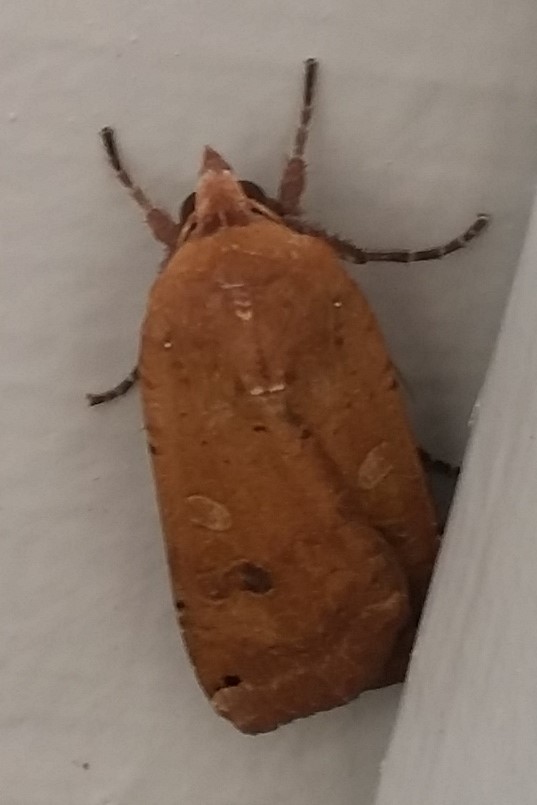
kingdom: Animalia
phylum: Arthropoda
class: Insecta
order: Lepidoptera
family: Noctuidae
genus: Noctua
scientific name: Noctua pronuba
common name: Large yellow underwing
